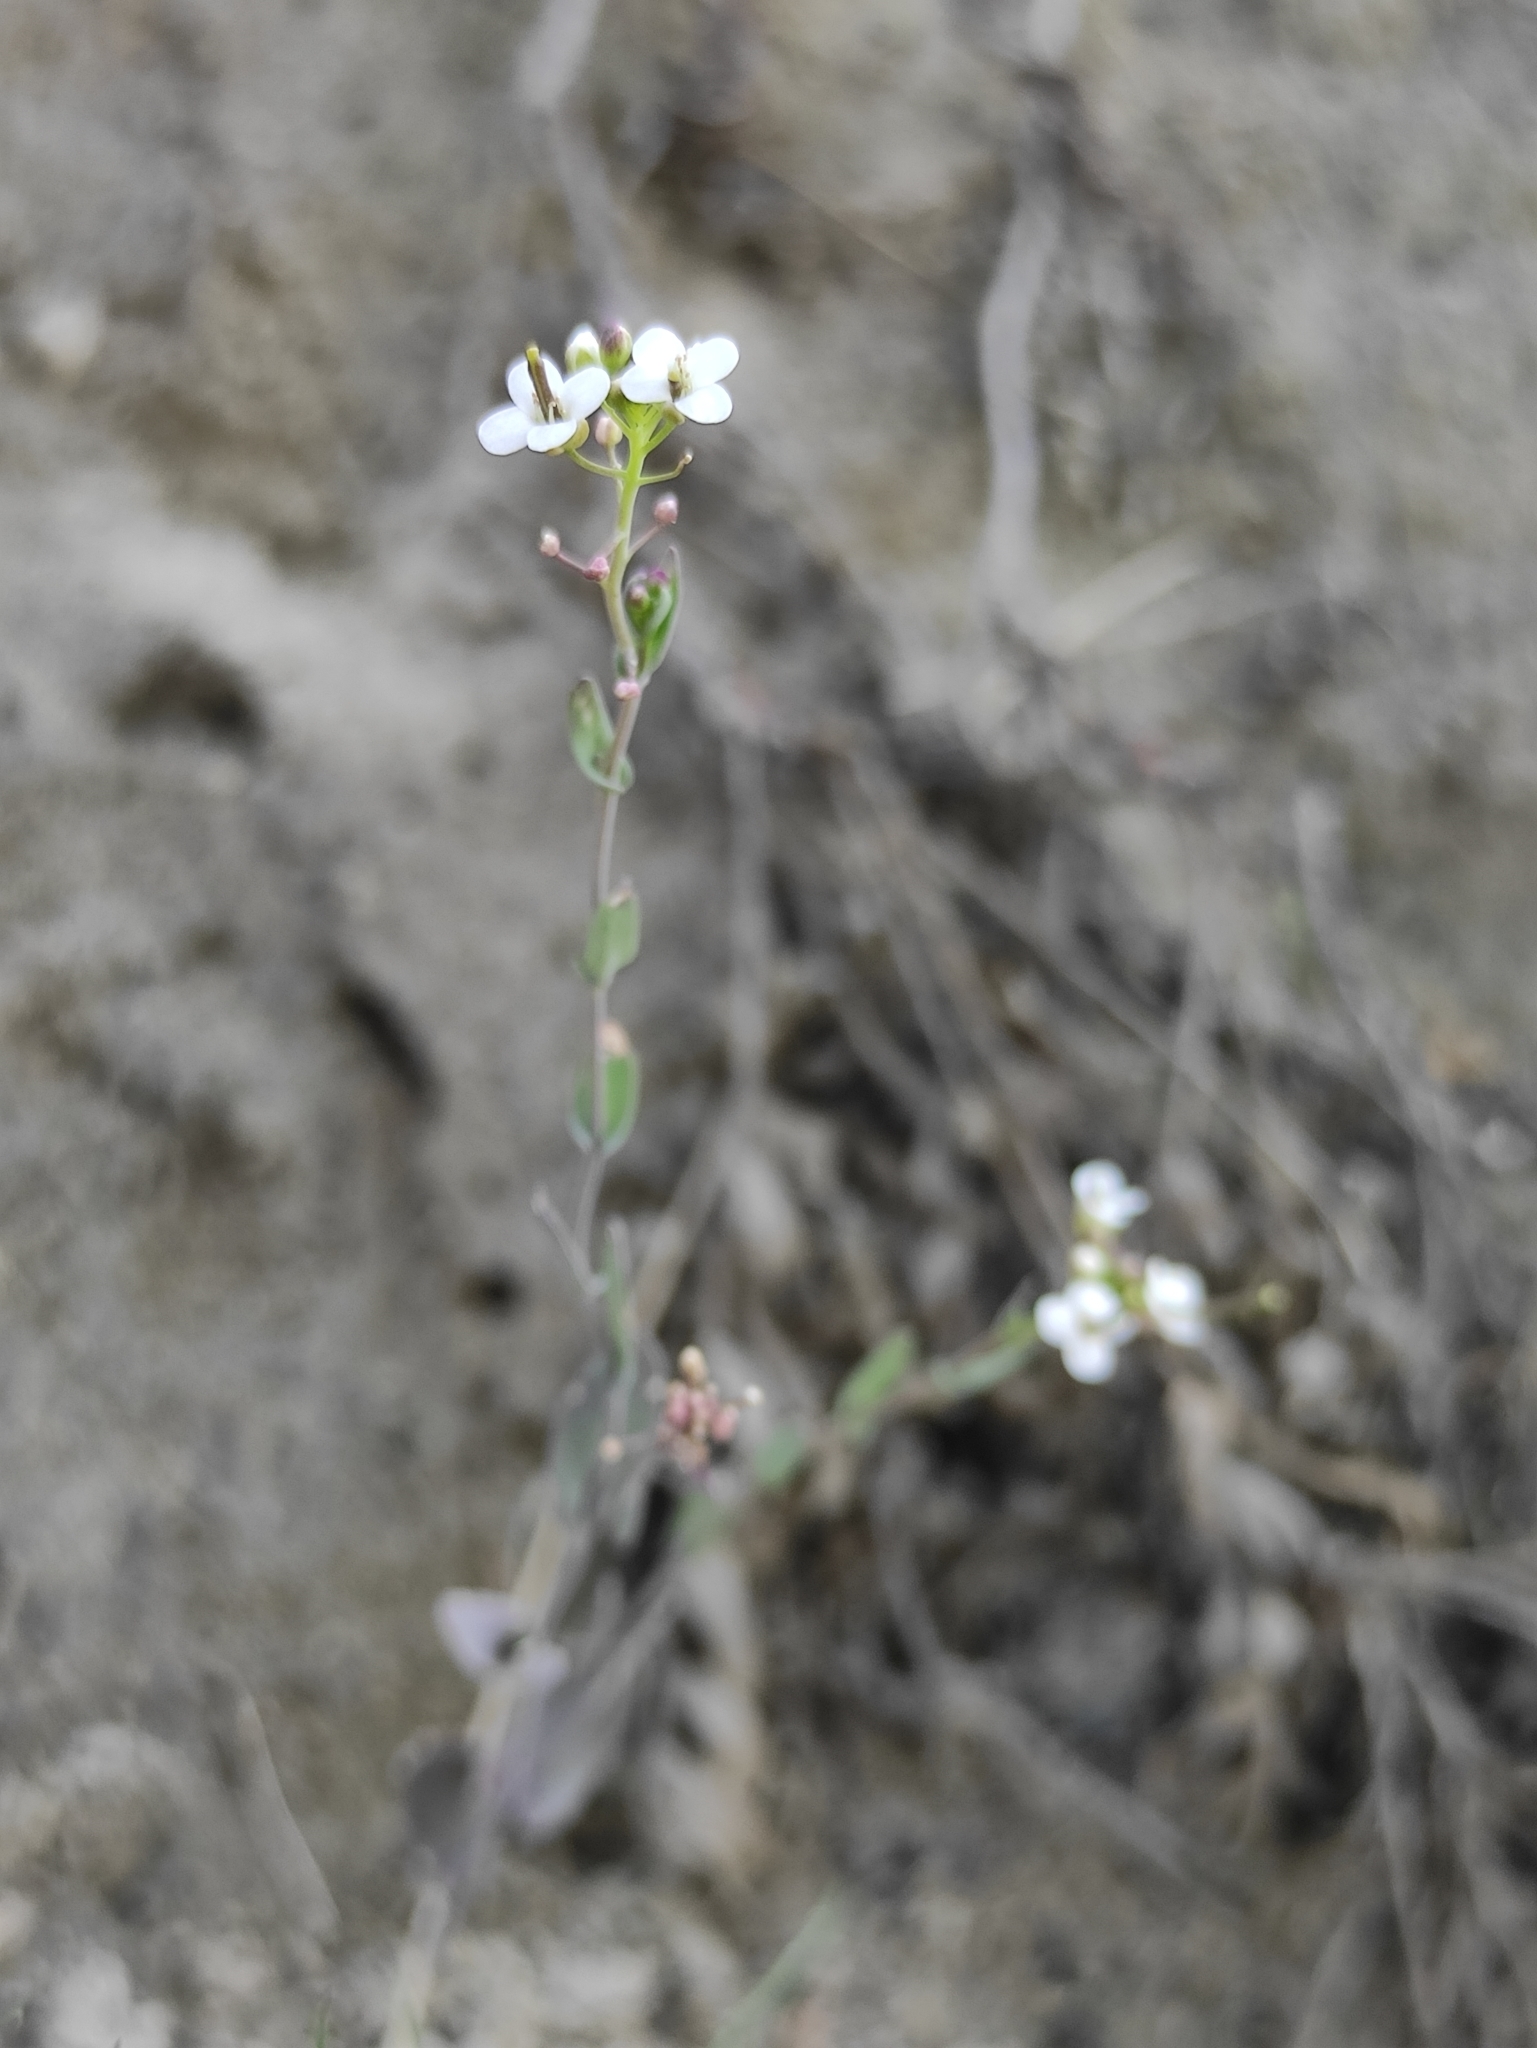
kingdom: Plantae
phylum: Tracheophyta
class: Magnoliopsida
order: Brassicales
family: Brassicaceae
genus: Eutrema
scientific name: Eutrema salsugineum
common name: Mouse-ear cress
